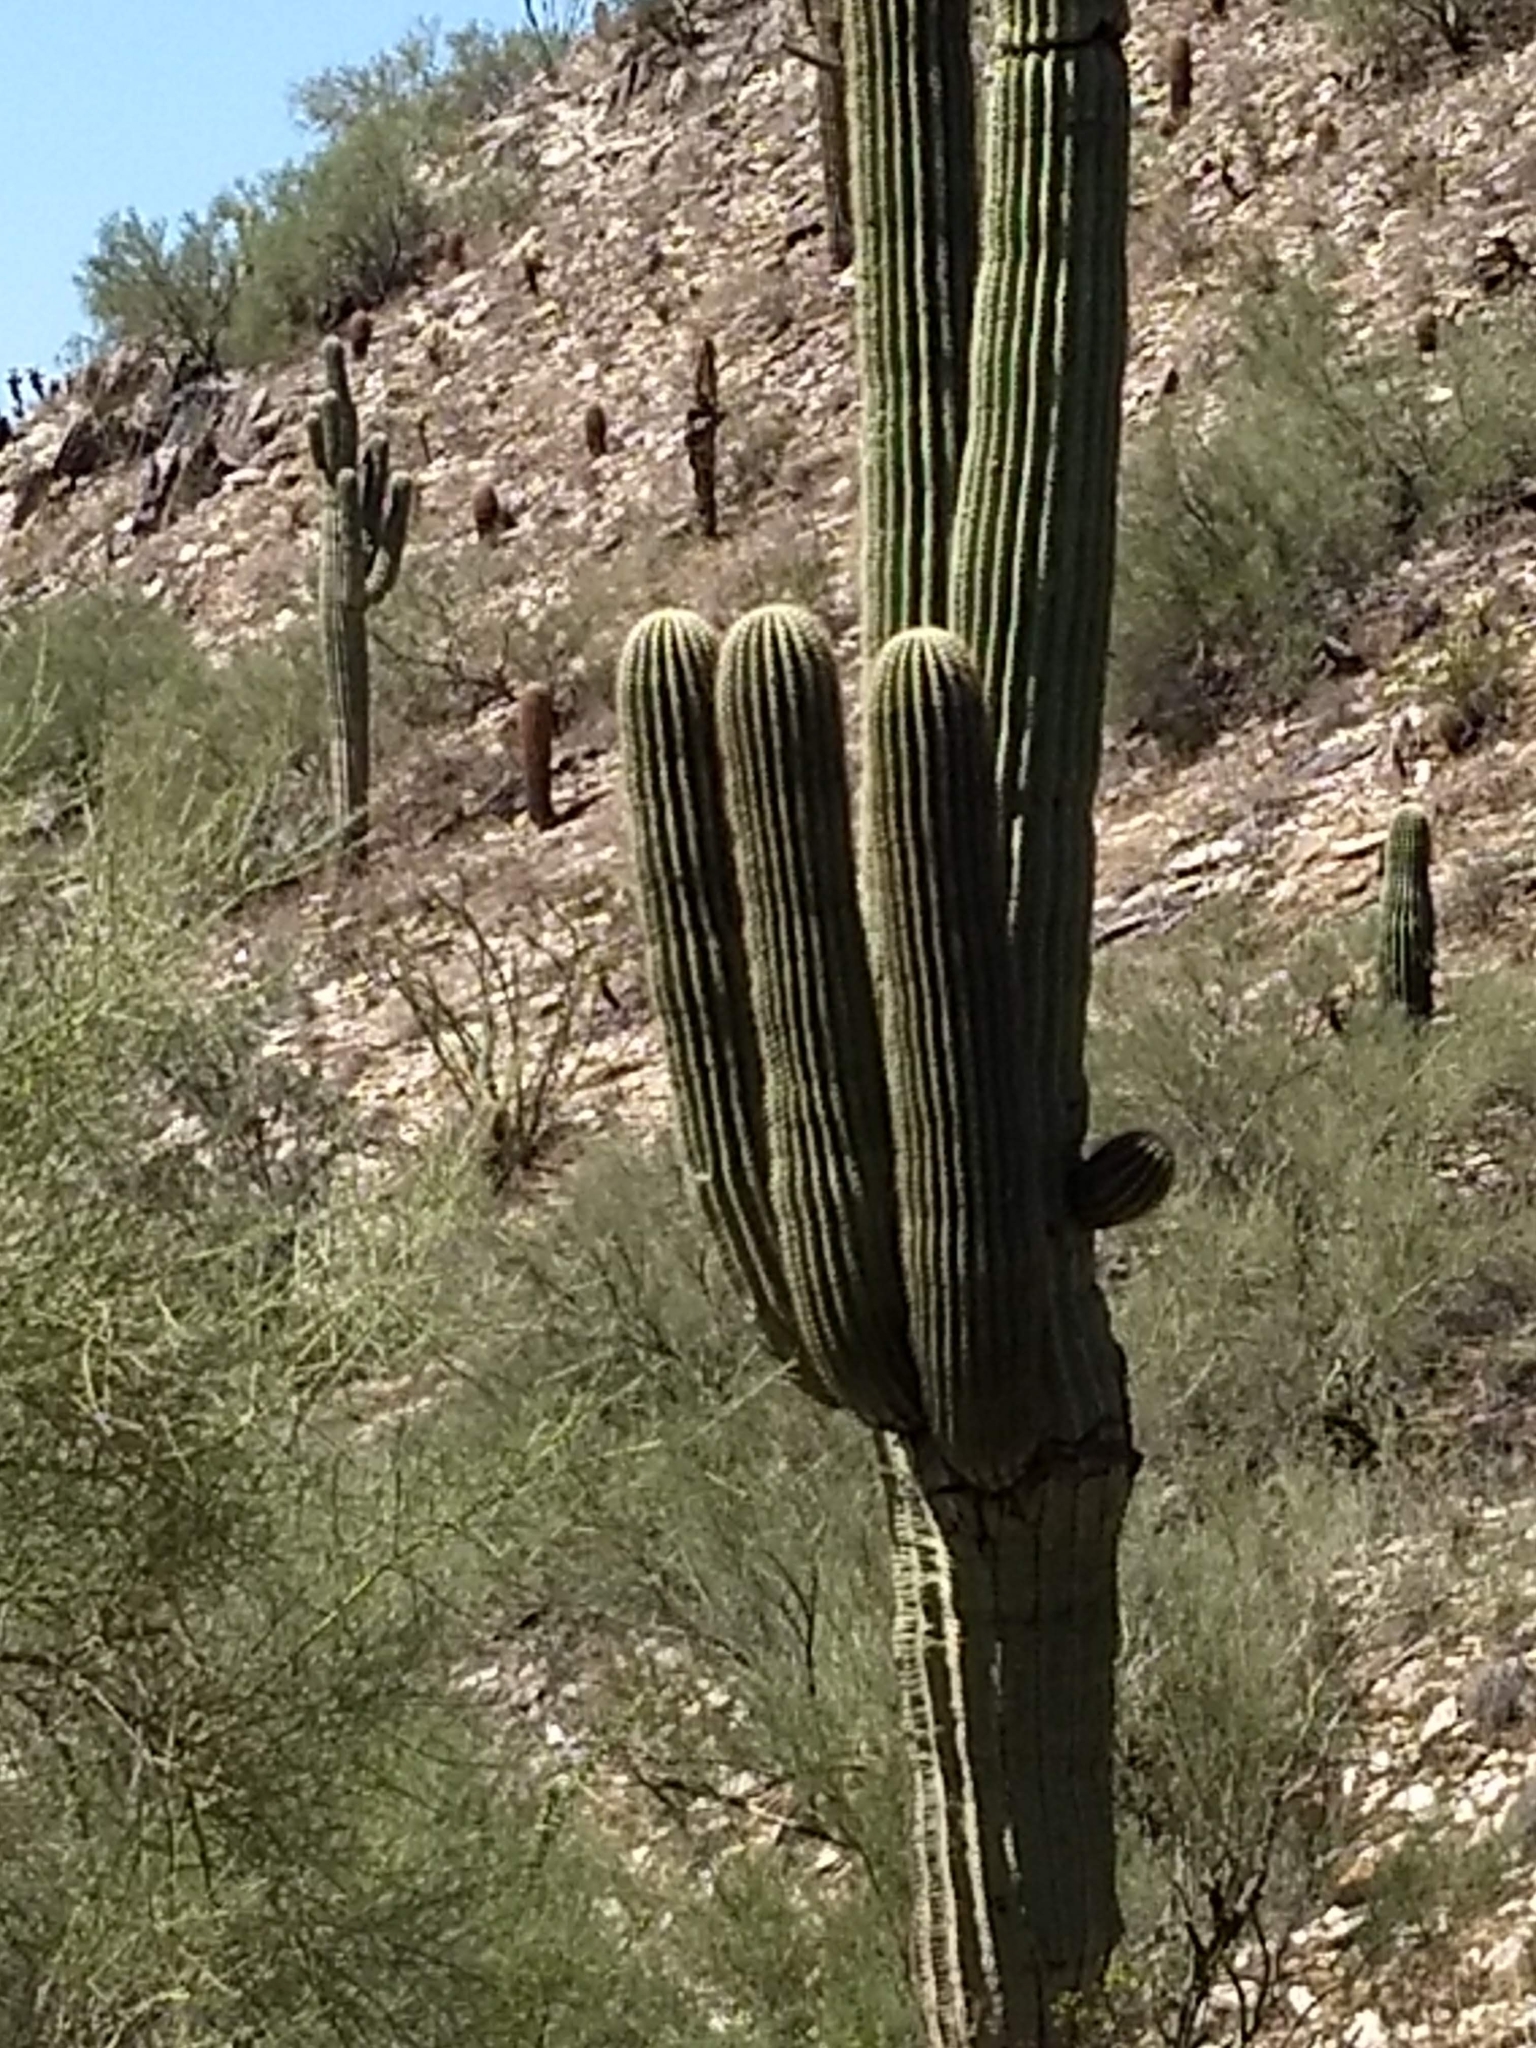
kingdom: Plantae
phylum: Tracheophyta
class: Magnoliopsida
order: Caryophyllales
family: Cactaceae
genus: Carnegiea
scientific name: Carnegiea gigantea
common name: Saguaro
